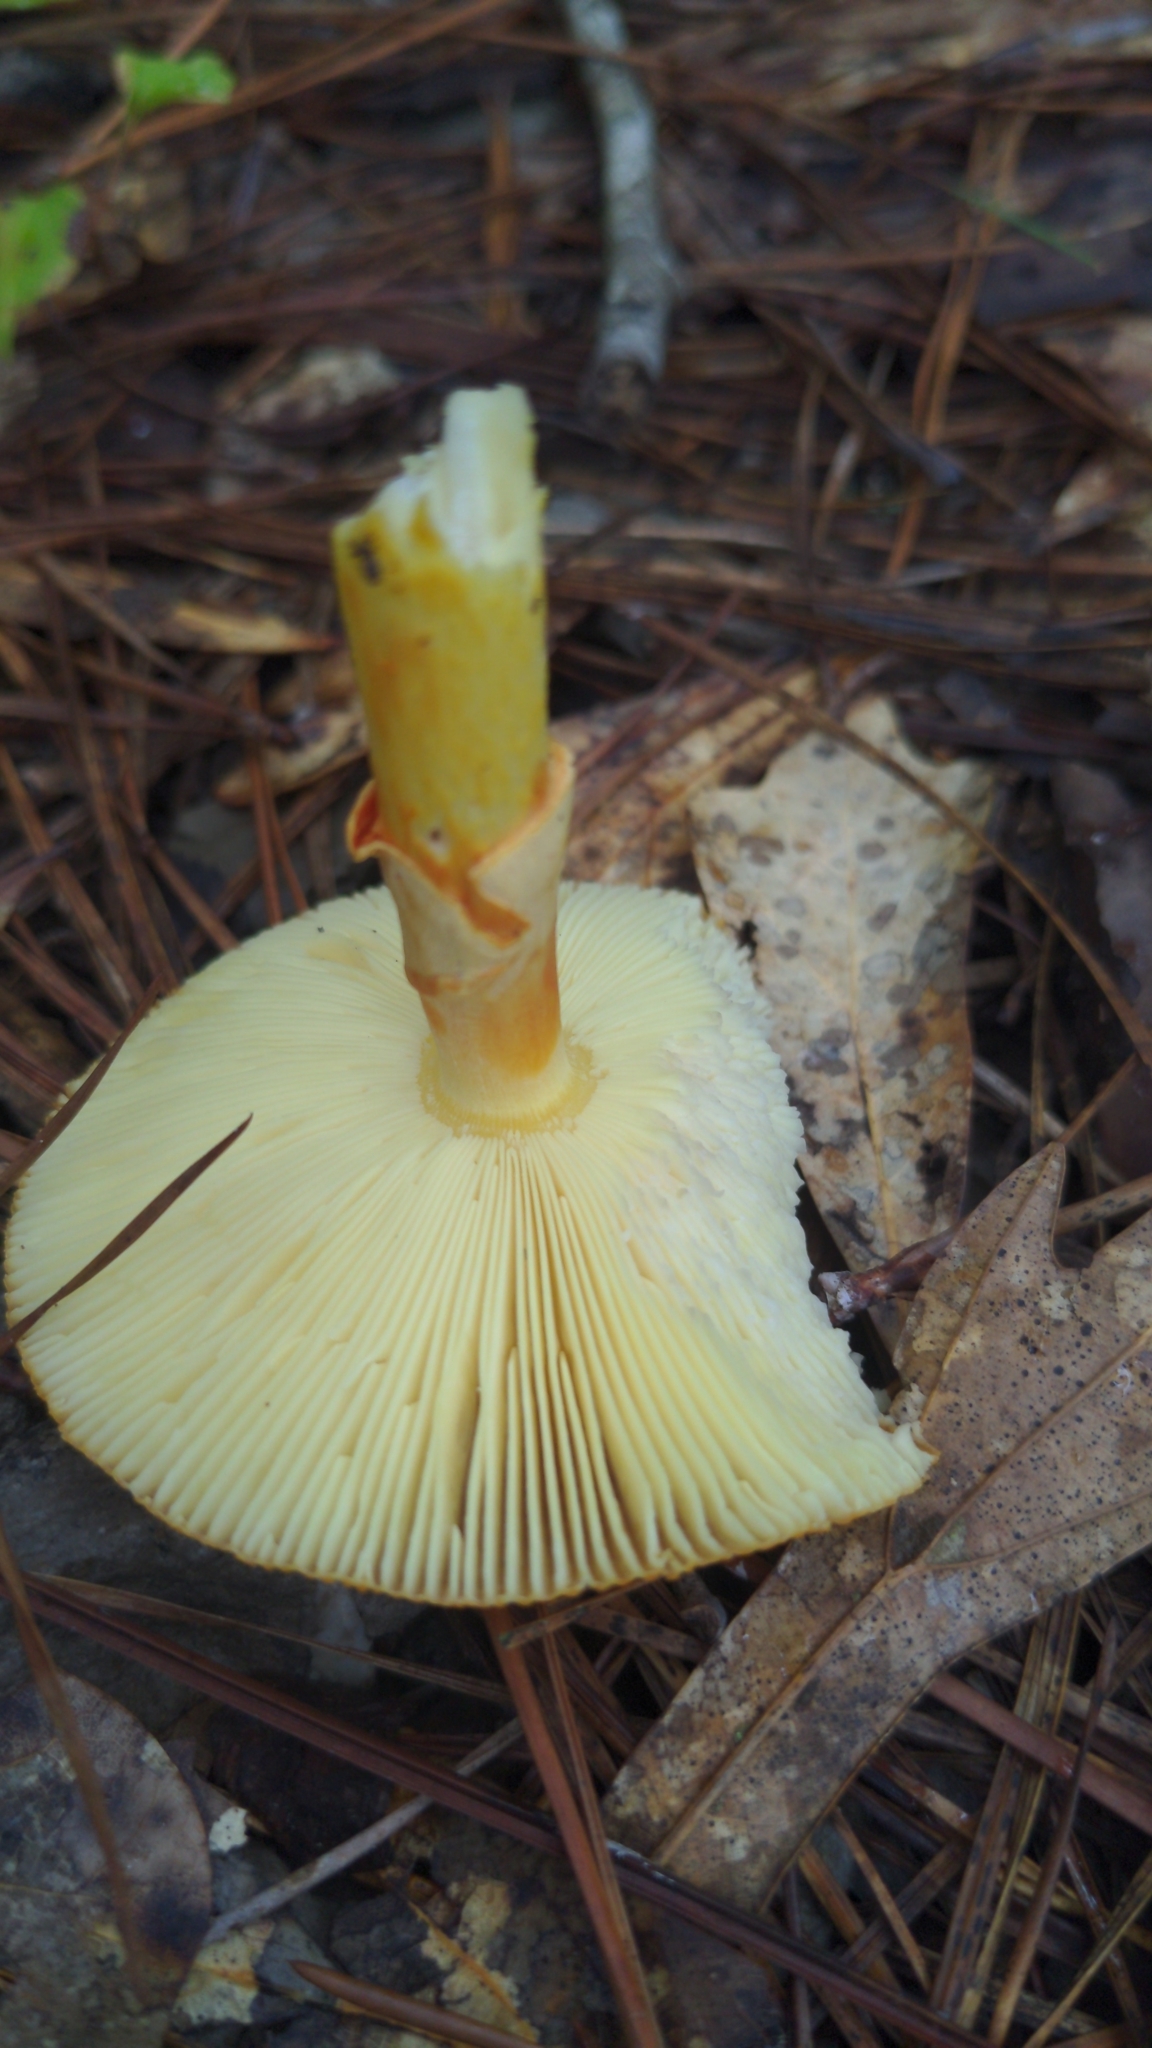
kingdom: Fungi
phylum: Basidiomycota
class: Agaricomycetes
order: Agaricales
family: Amanitaceae
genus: Amanita
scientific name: Amanita jacksonii
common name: Jackson's slender caesar
